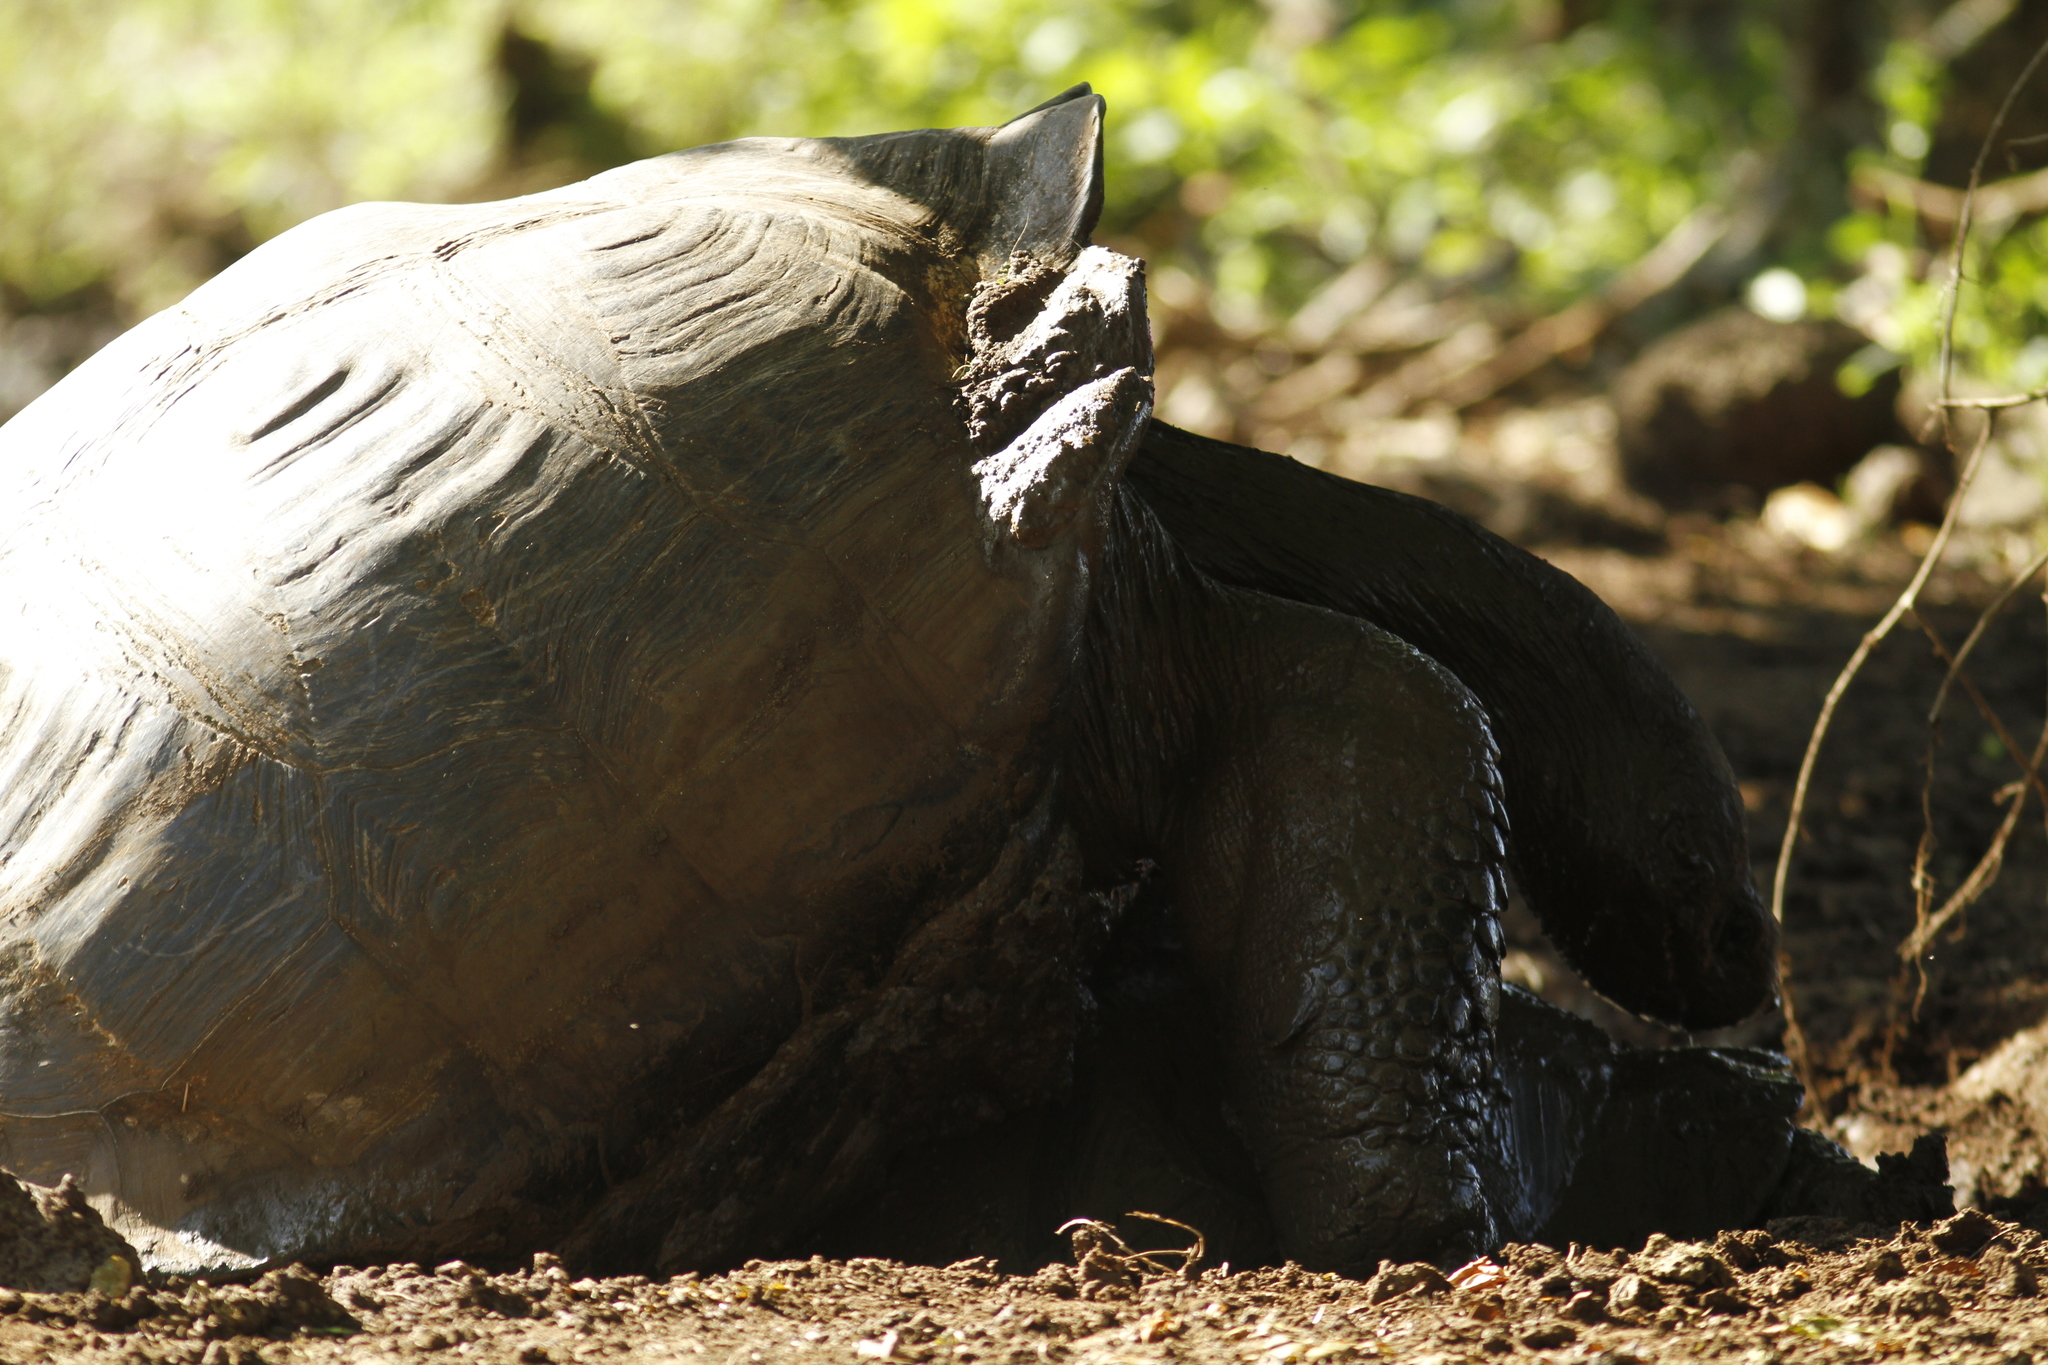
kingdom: Animalia
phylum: Chordata
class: Testudines
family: Testudinidae
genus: Chelonoidis
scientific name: Chelonoidis porteri
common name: Indefatigable island giant tortoise
